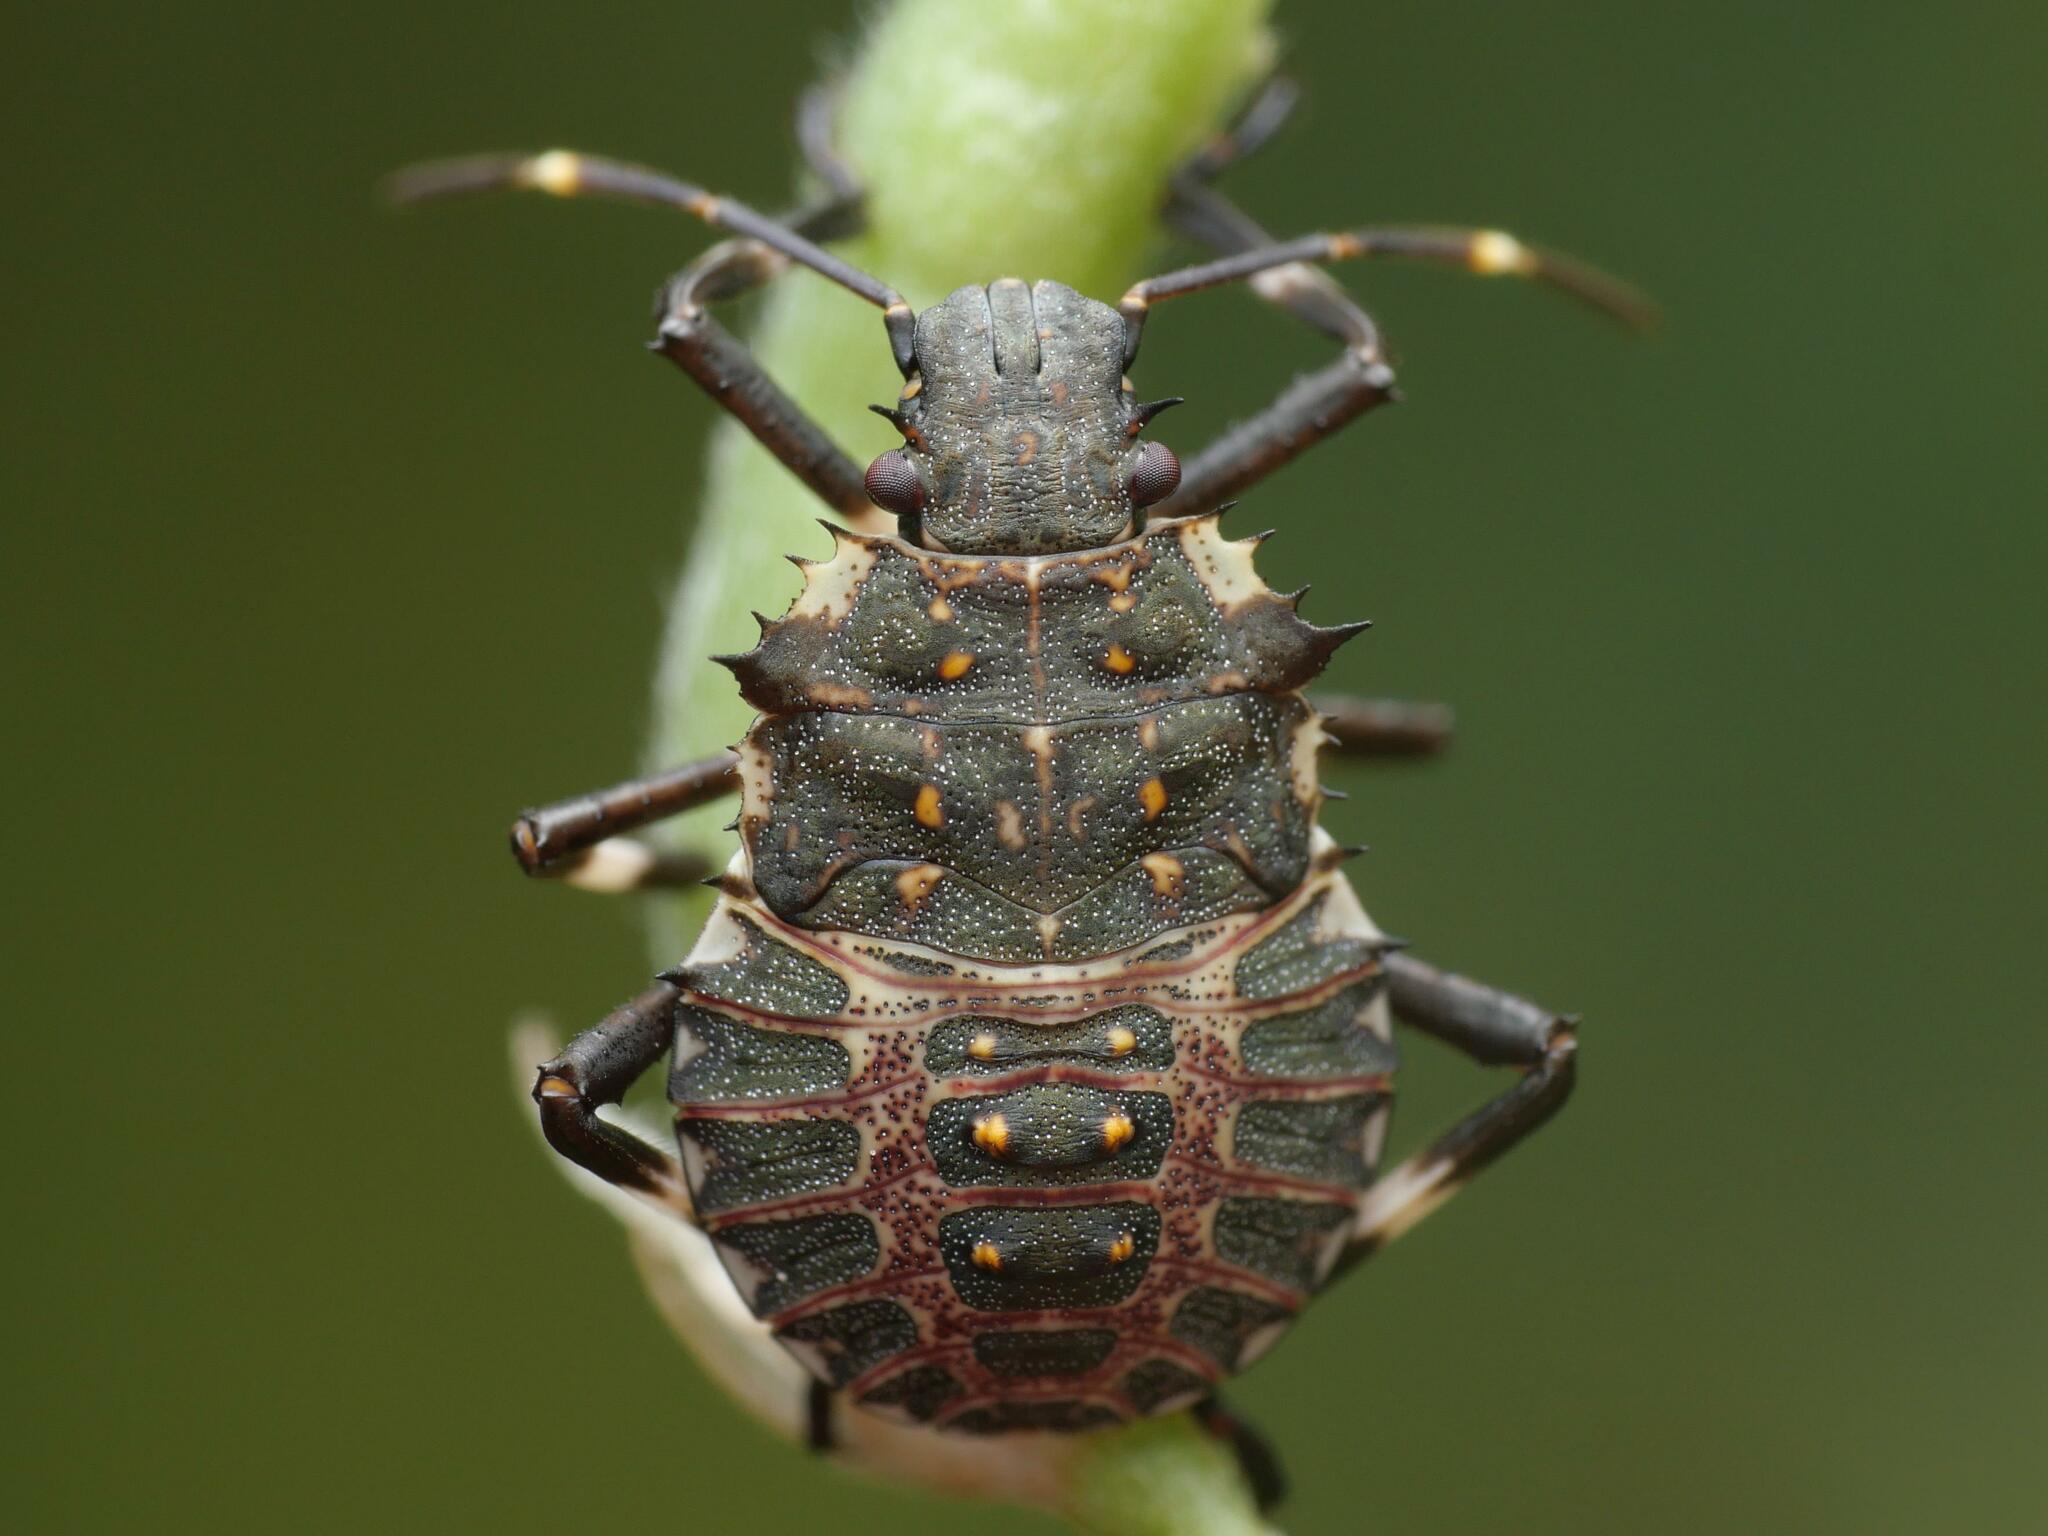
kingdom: Animalia
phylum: Arthropoda
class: Insecta
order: Hemiptera
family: Pentatomidae
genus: Halyomorpha
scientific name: Halyomorpha halys
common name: Brown marmorated stink bug
